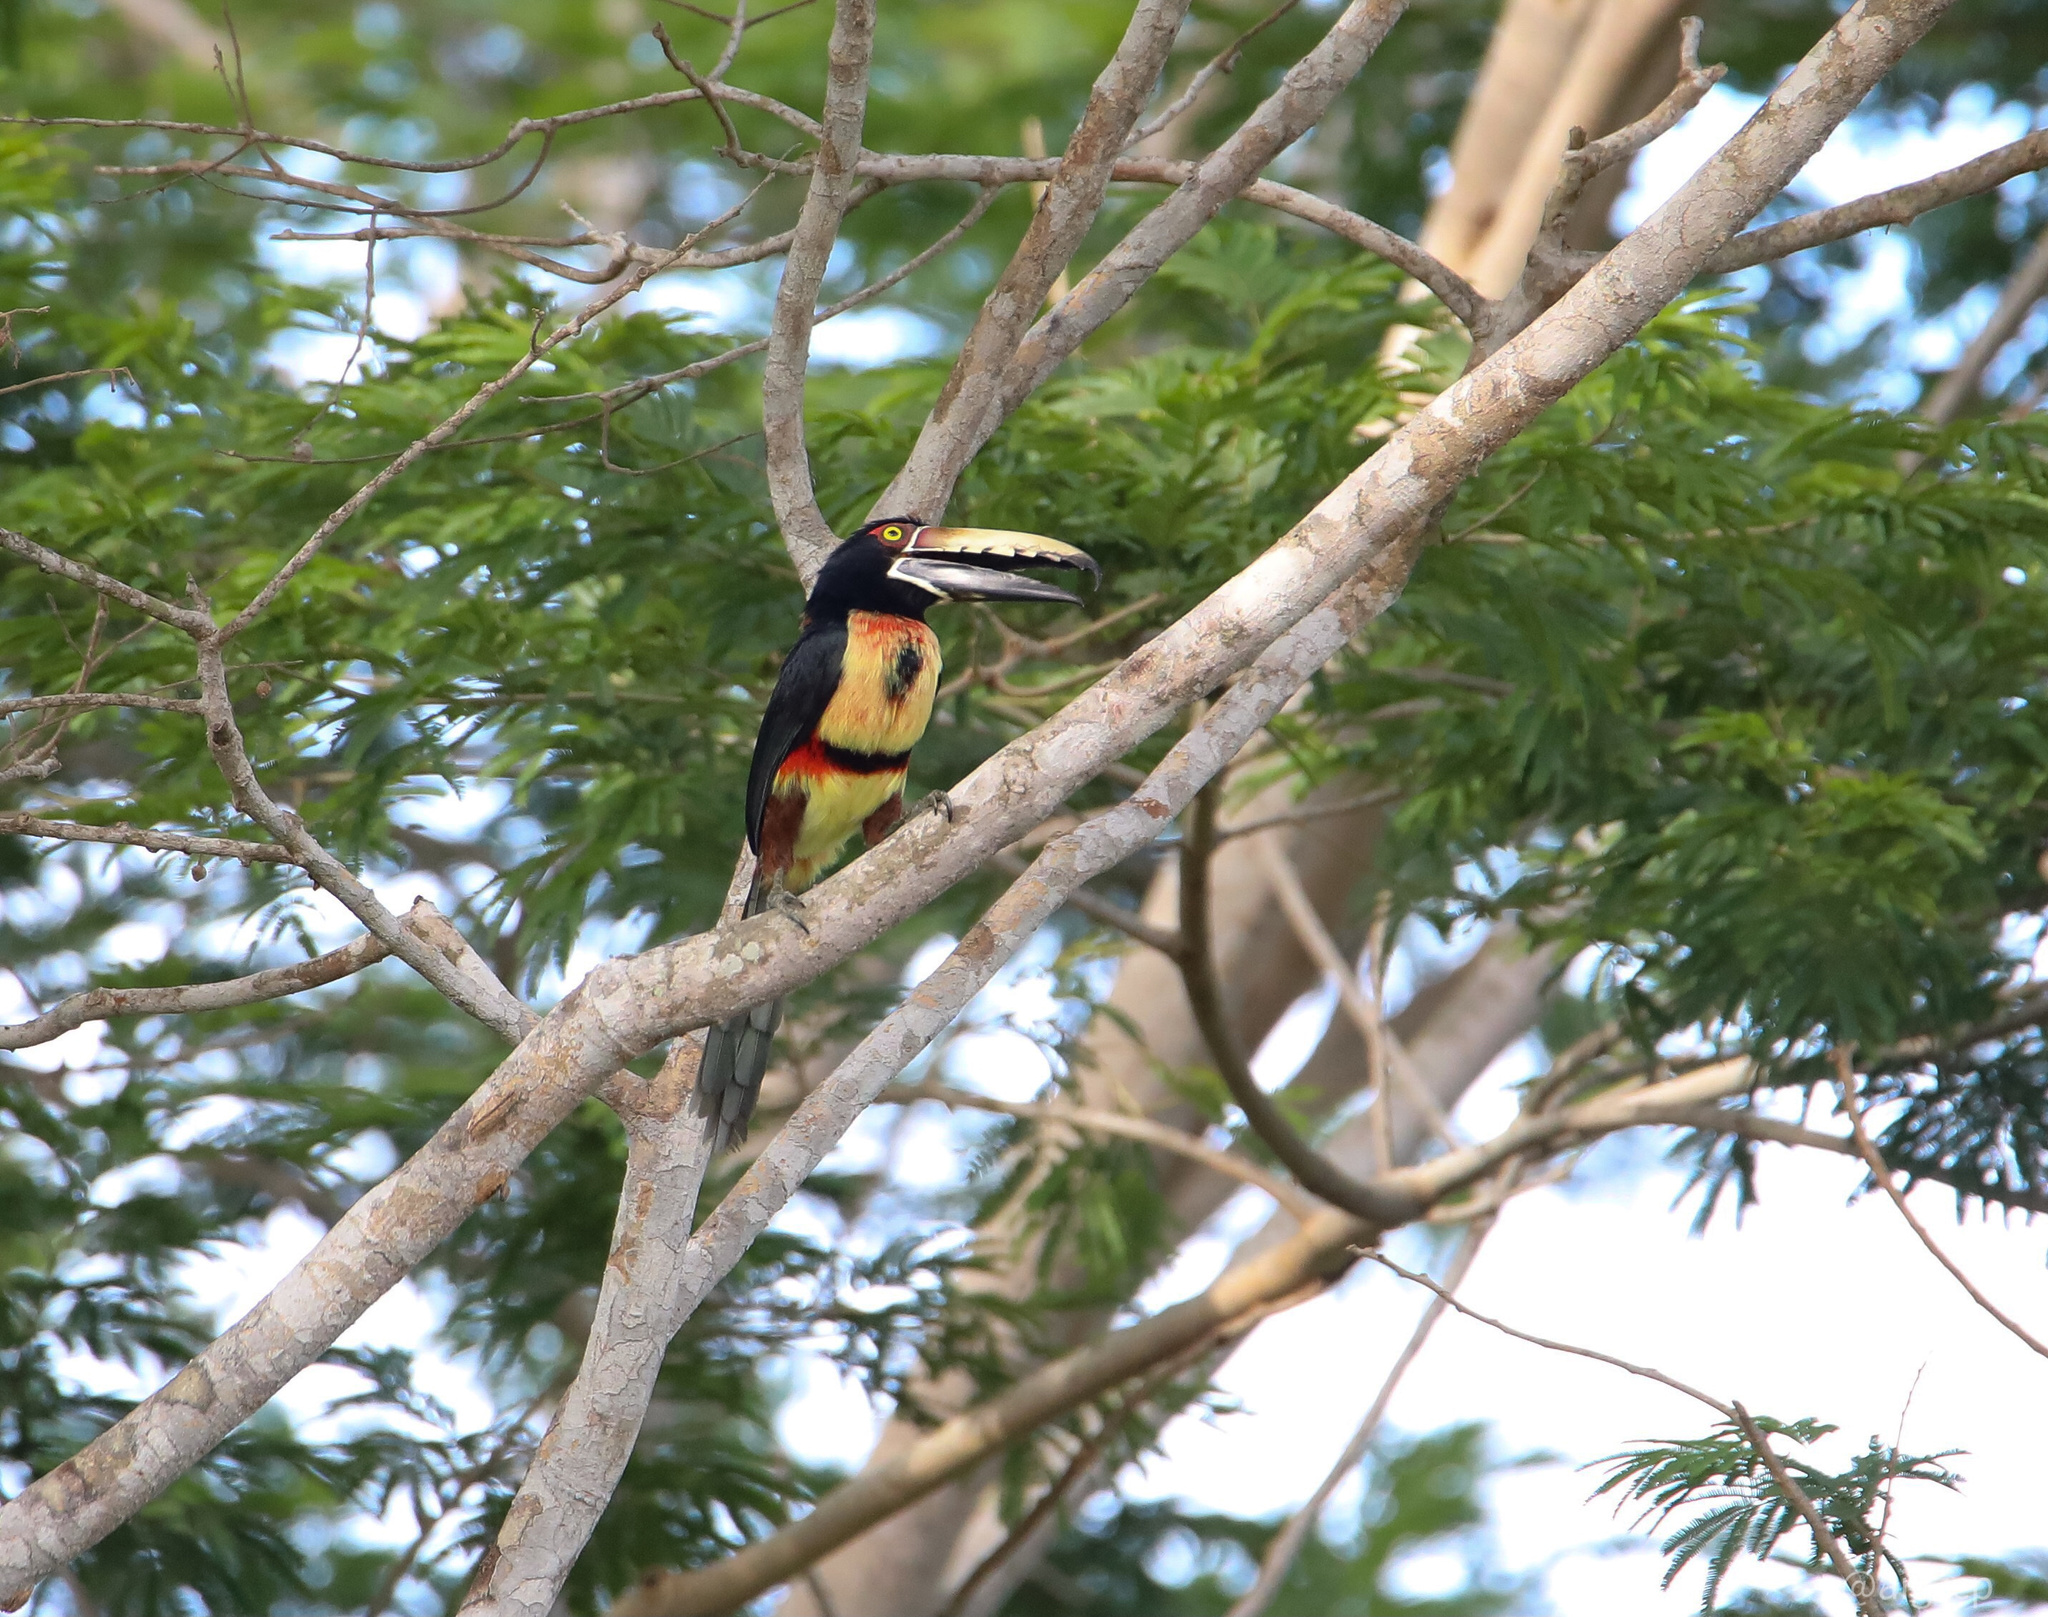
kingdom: Animalia
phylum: Chordata
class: Aves
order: Piciformes
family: Ramphastidae
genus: Pteroglossus
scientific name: Pteroglossus torquatus
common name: Collared aracari
